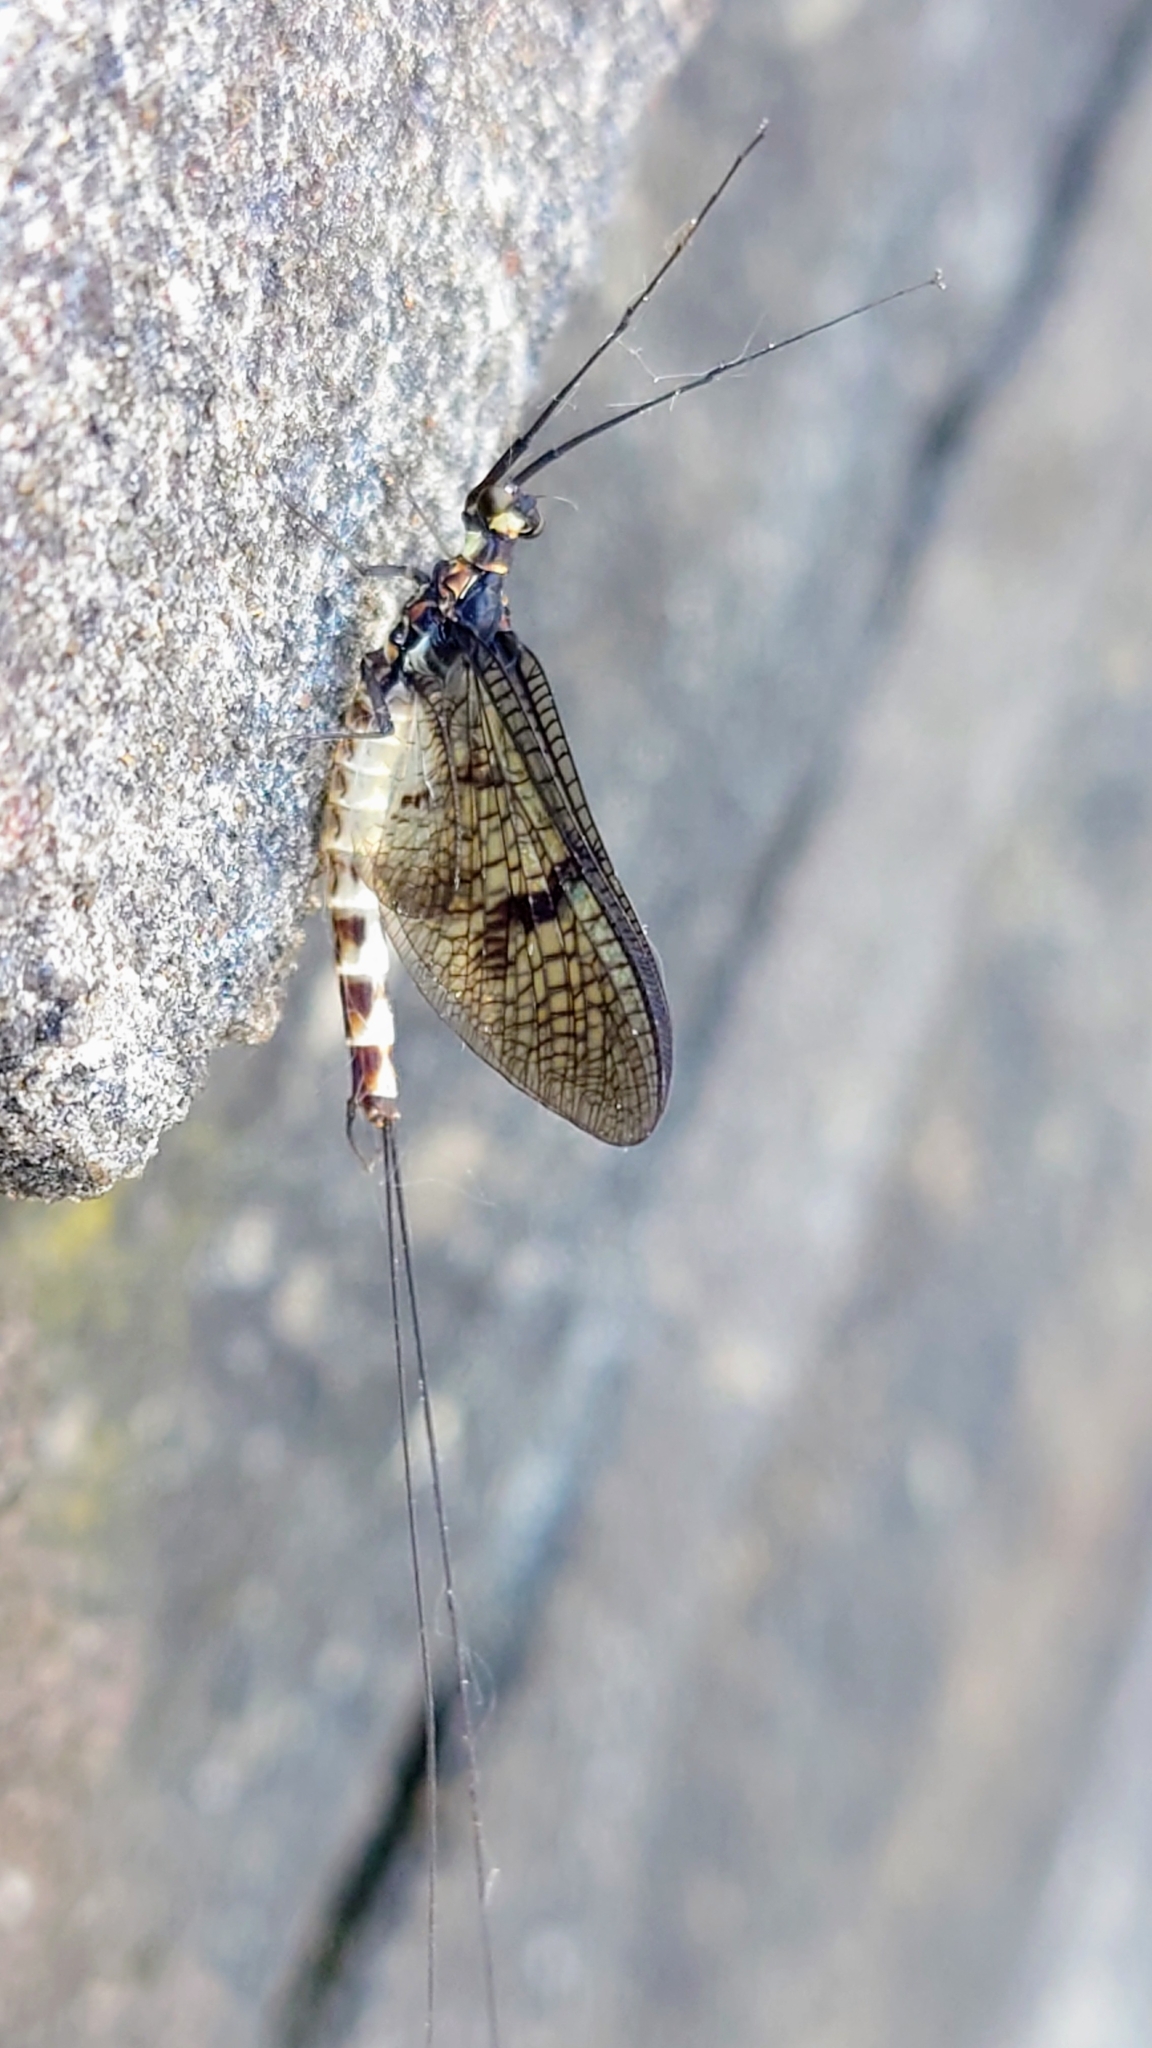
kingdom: Animalia
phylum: Arthropoda
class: Insecta
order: Ephemeroptera
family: Ephemeridae
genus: Ephemera
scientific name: Ephemera danica
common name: Green dun
